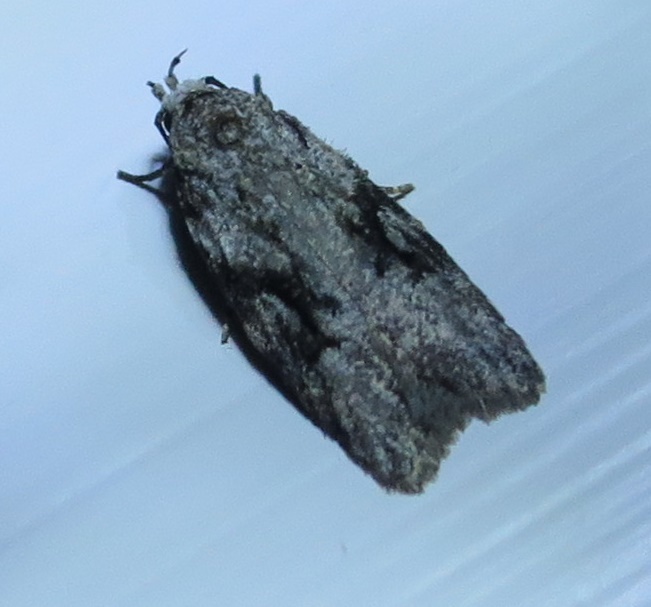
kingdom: Animalia
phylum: Arthropoda
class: Insecta
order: Lepidoptera
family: Oecophoridae
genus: Izatha
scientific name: Izatha mesoschista
